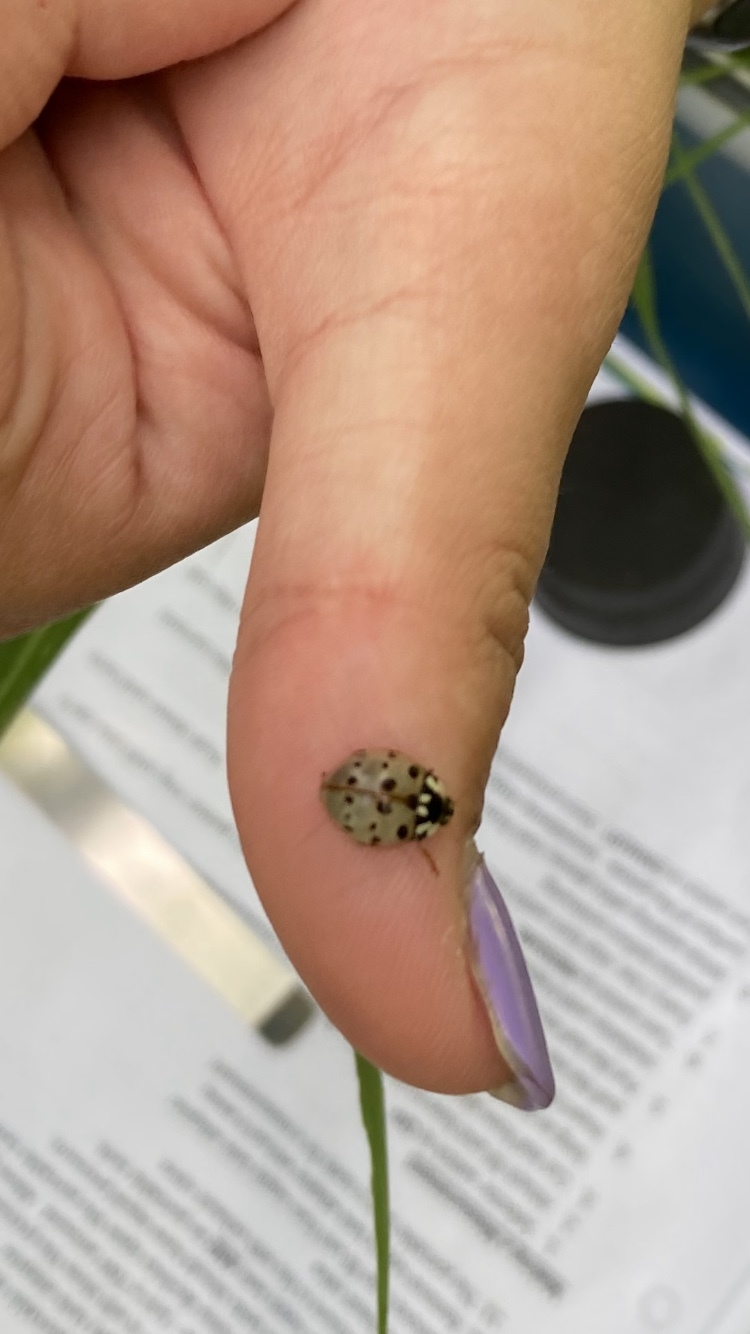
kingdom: Animalia
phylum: Arthropoda
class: Insecta
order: Coleoptera
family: Coccinellidae
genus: Anatis
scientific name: Anatis labiculata
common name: Fifteen-spotted lady beetle
